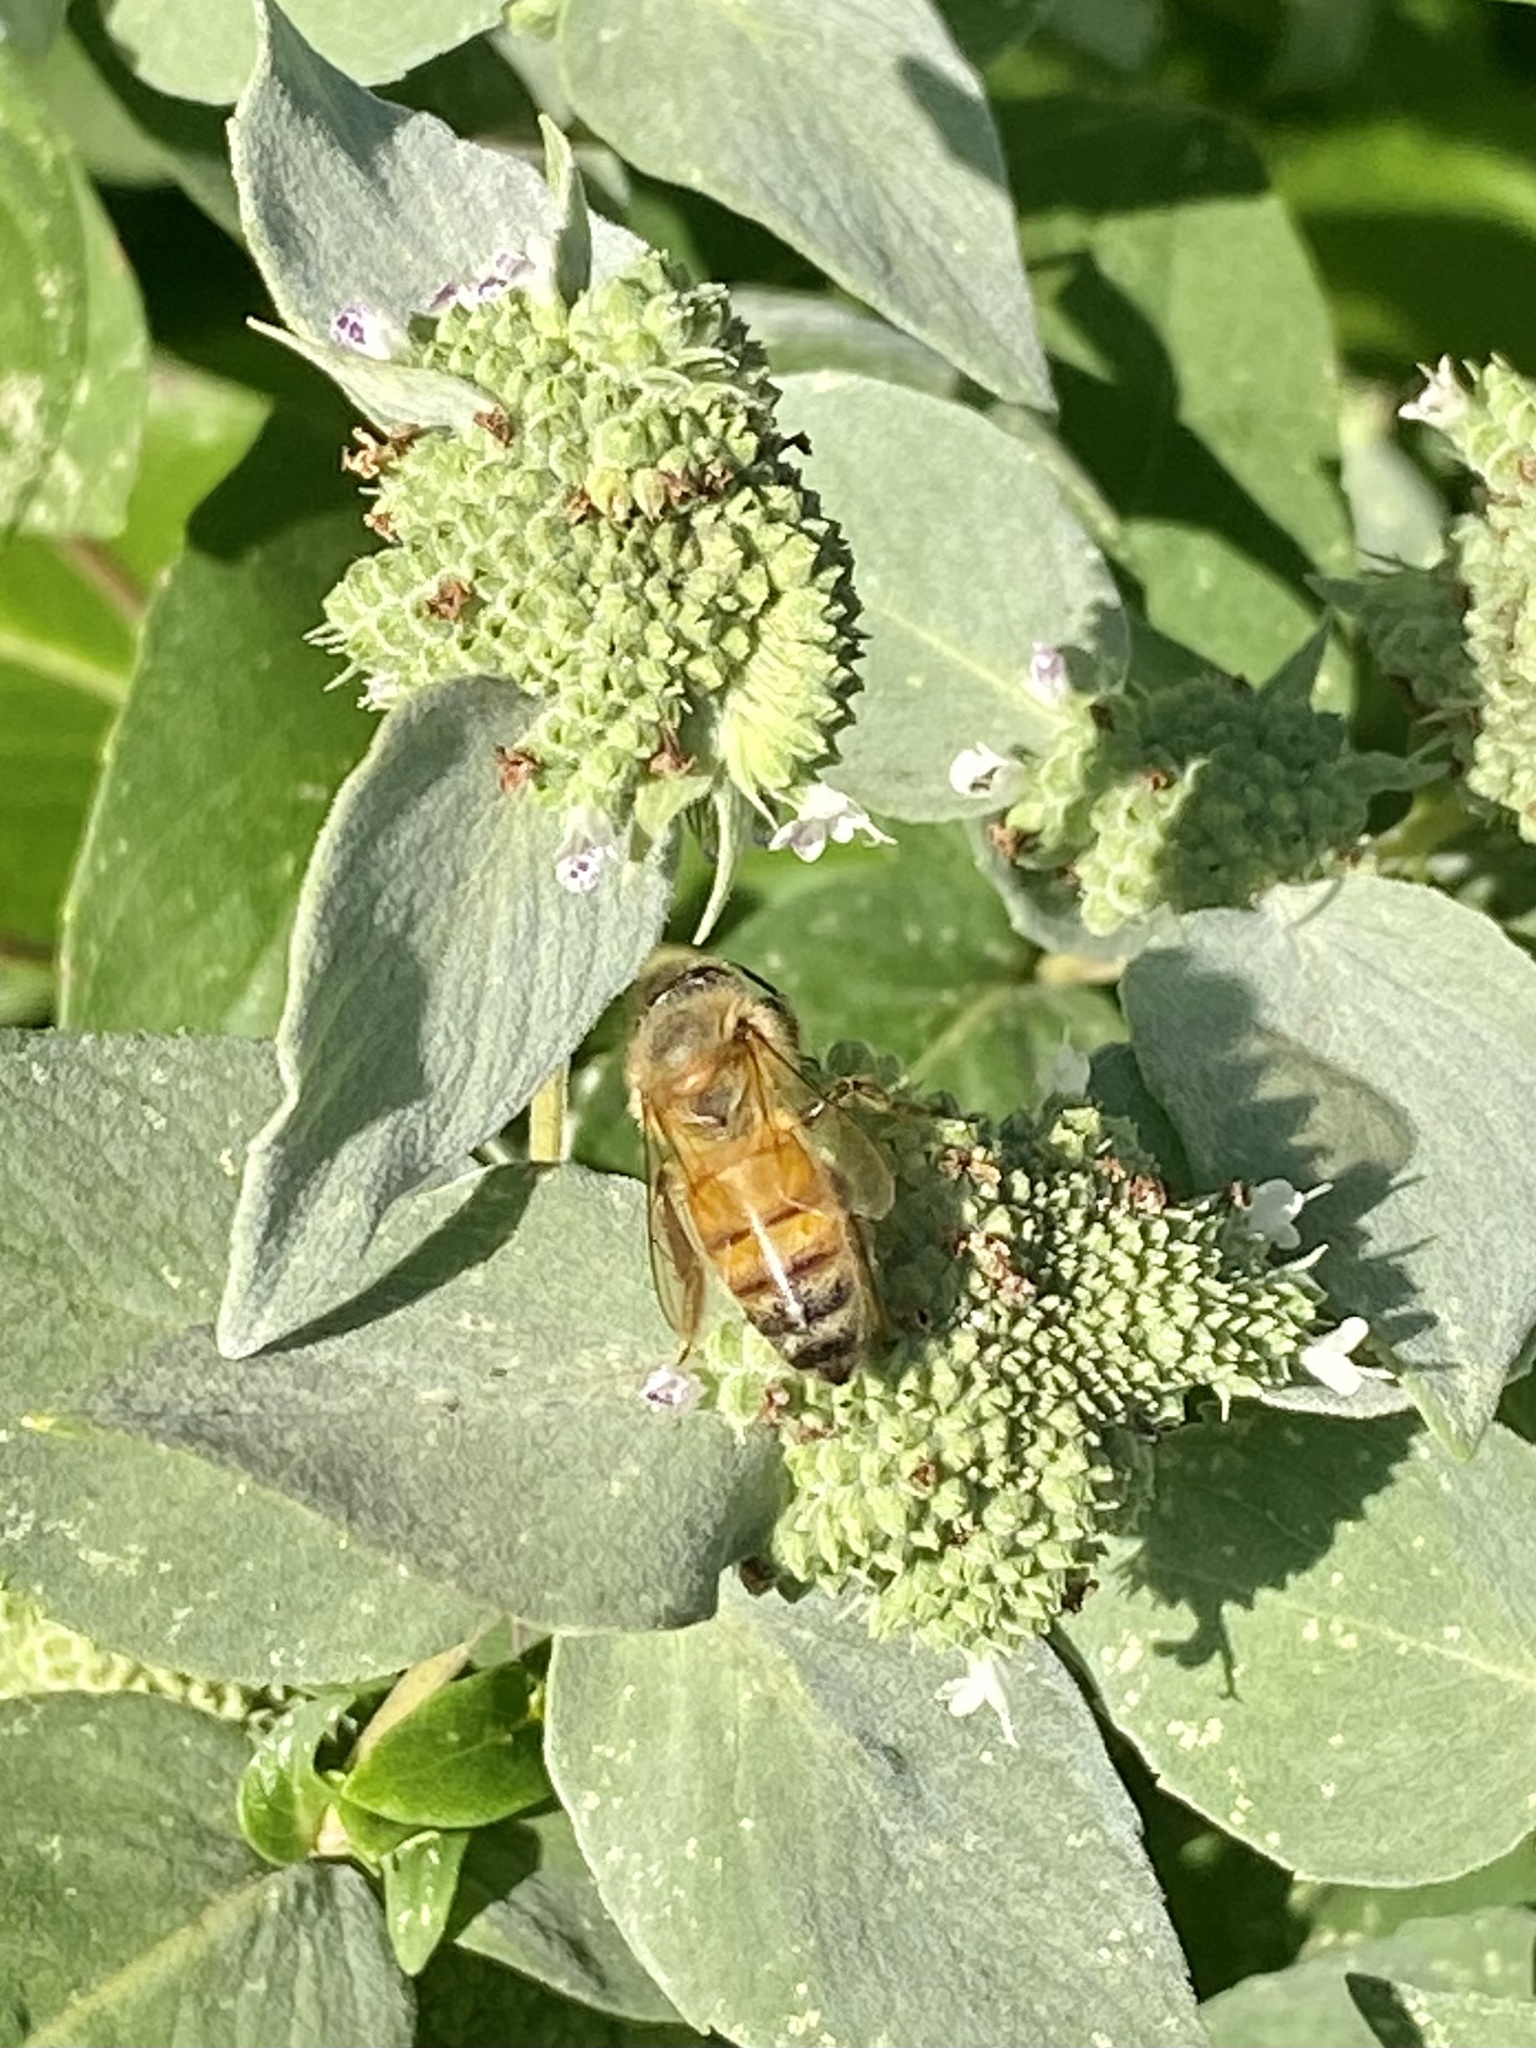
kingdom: Animalia
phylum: Arthropoda
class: Insecta
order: Hymenoptera
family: Apidae
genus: Apis
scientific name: Apis mellifera
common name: Honey bee
